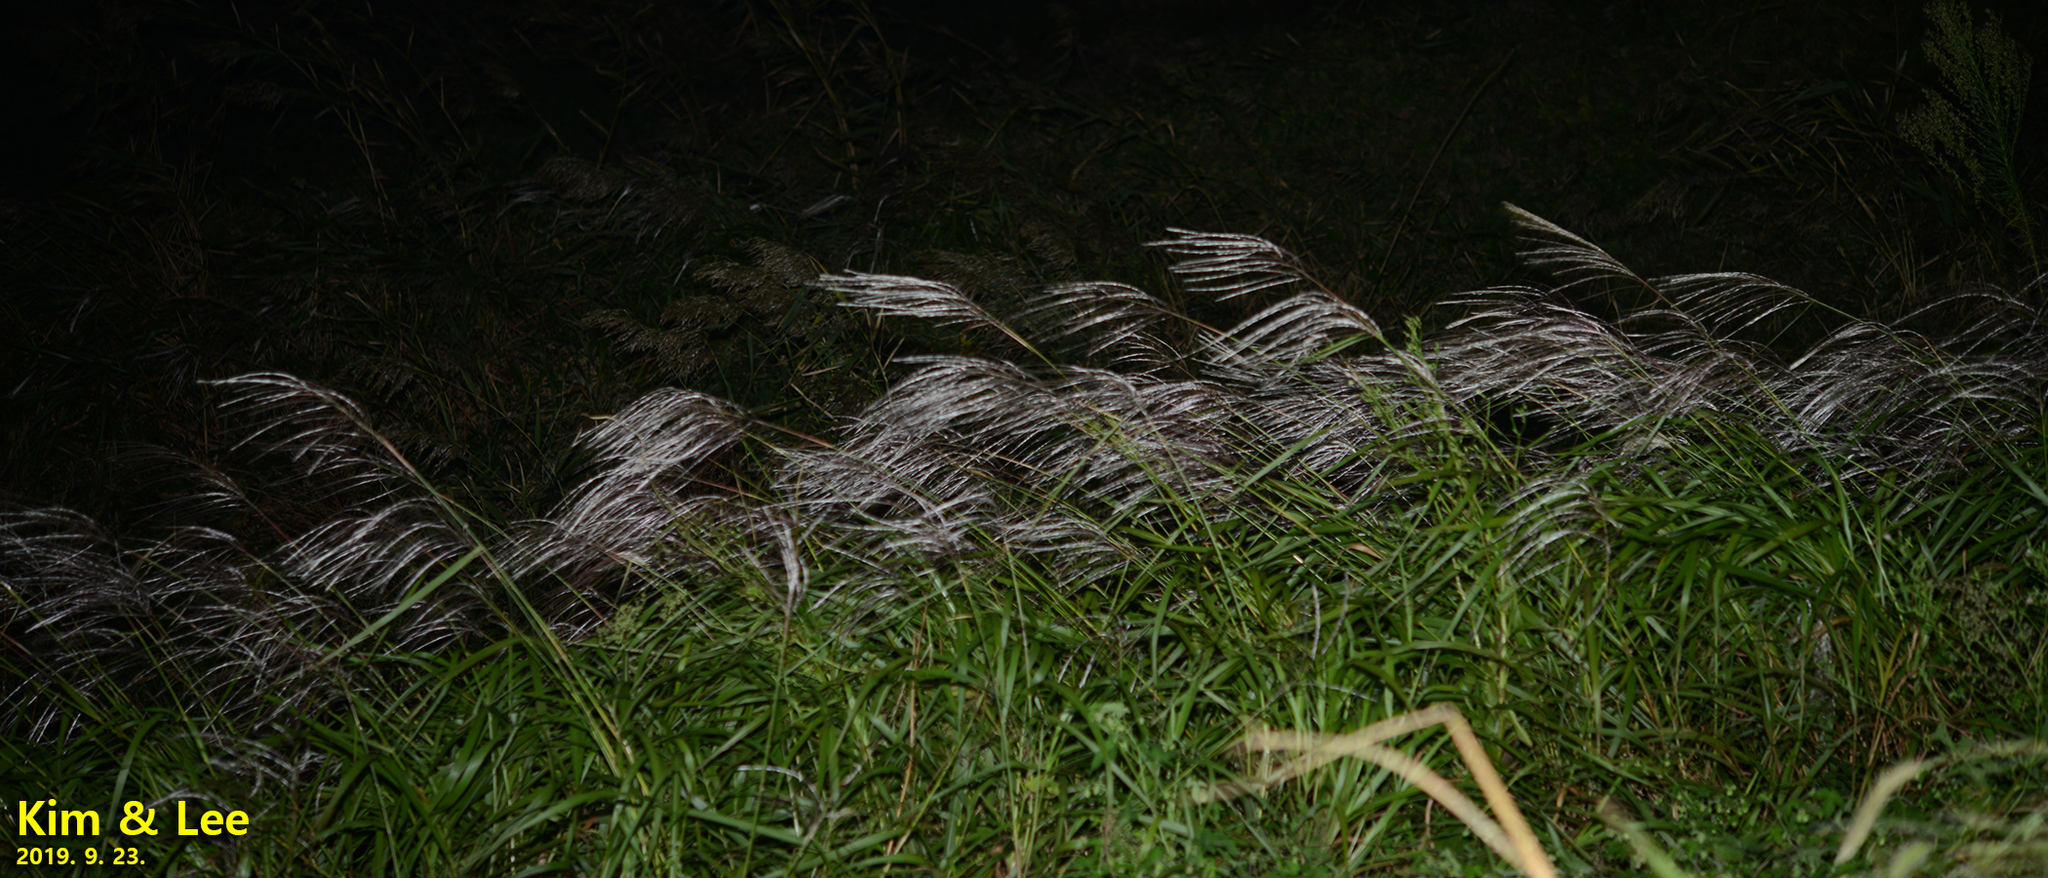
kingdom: Plantae
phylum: Tracheophyta
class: Liliopsida
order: Poales
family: Poaceae
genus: Miscanthus
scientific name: Miscanthus sinensis
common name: Chinese silvergrass
